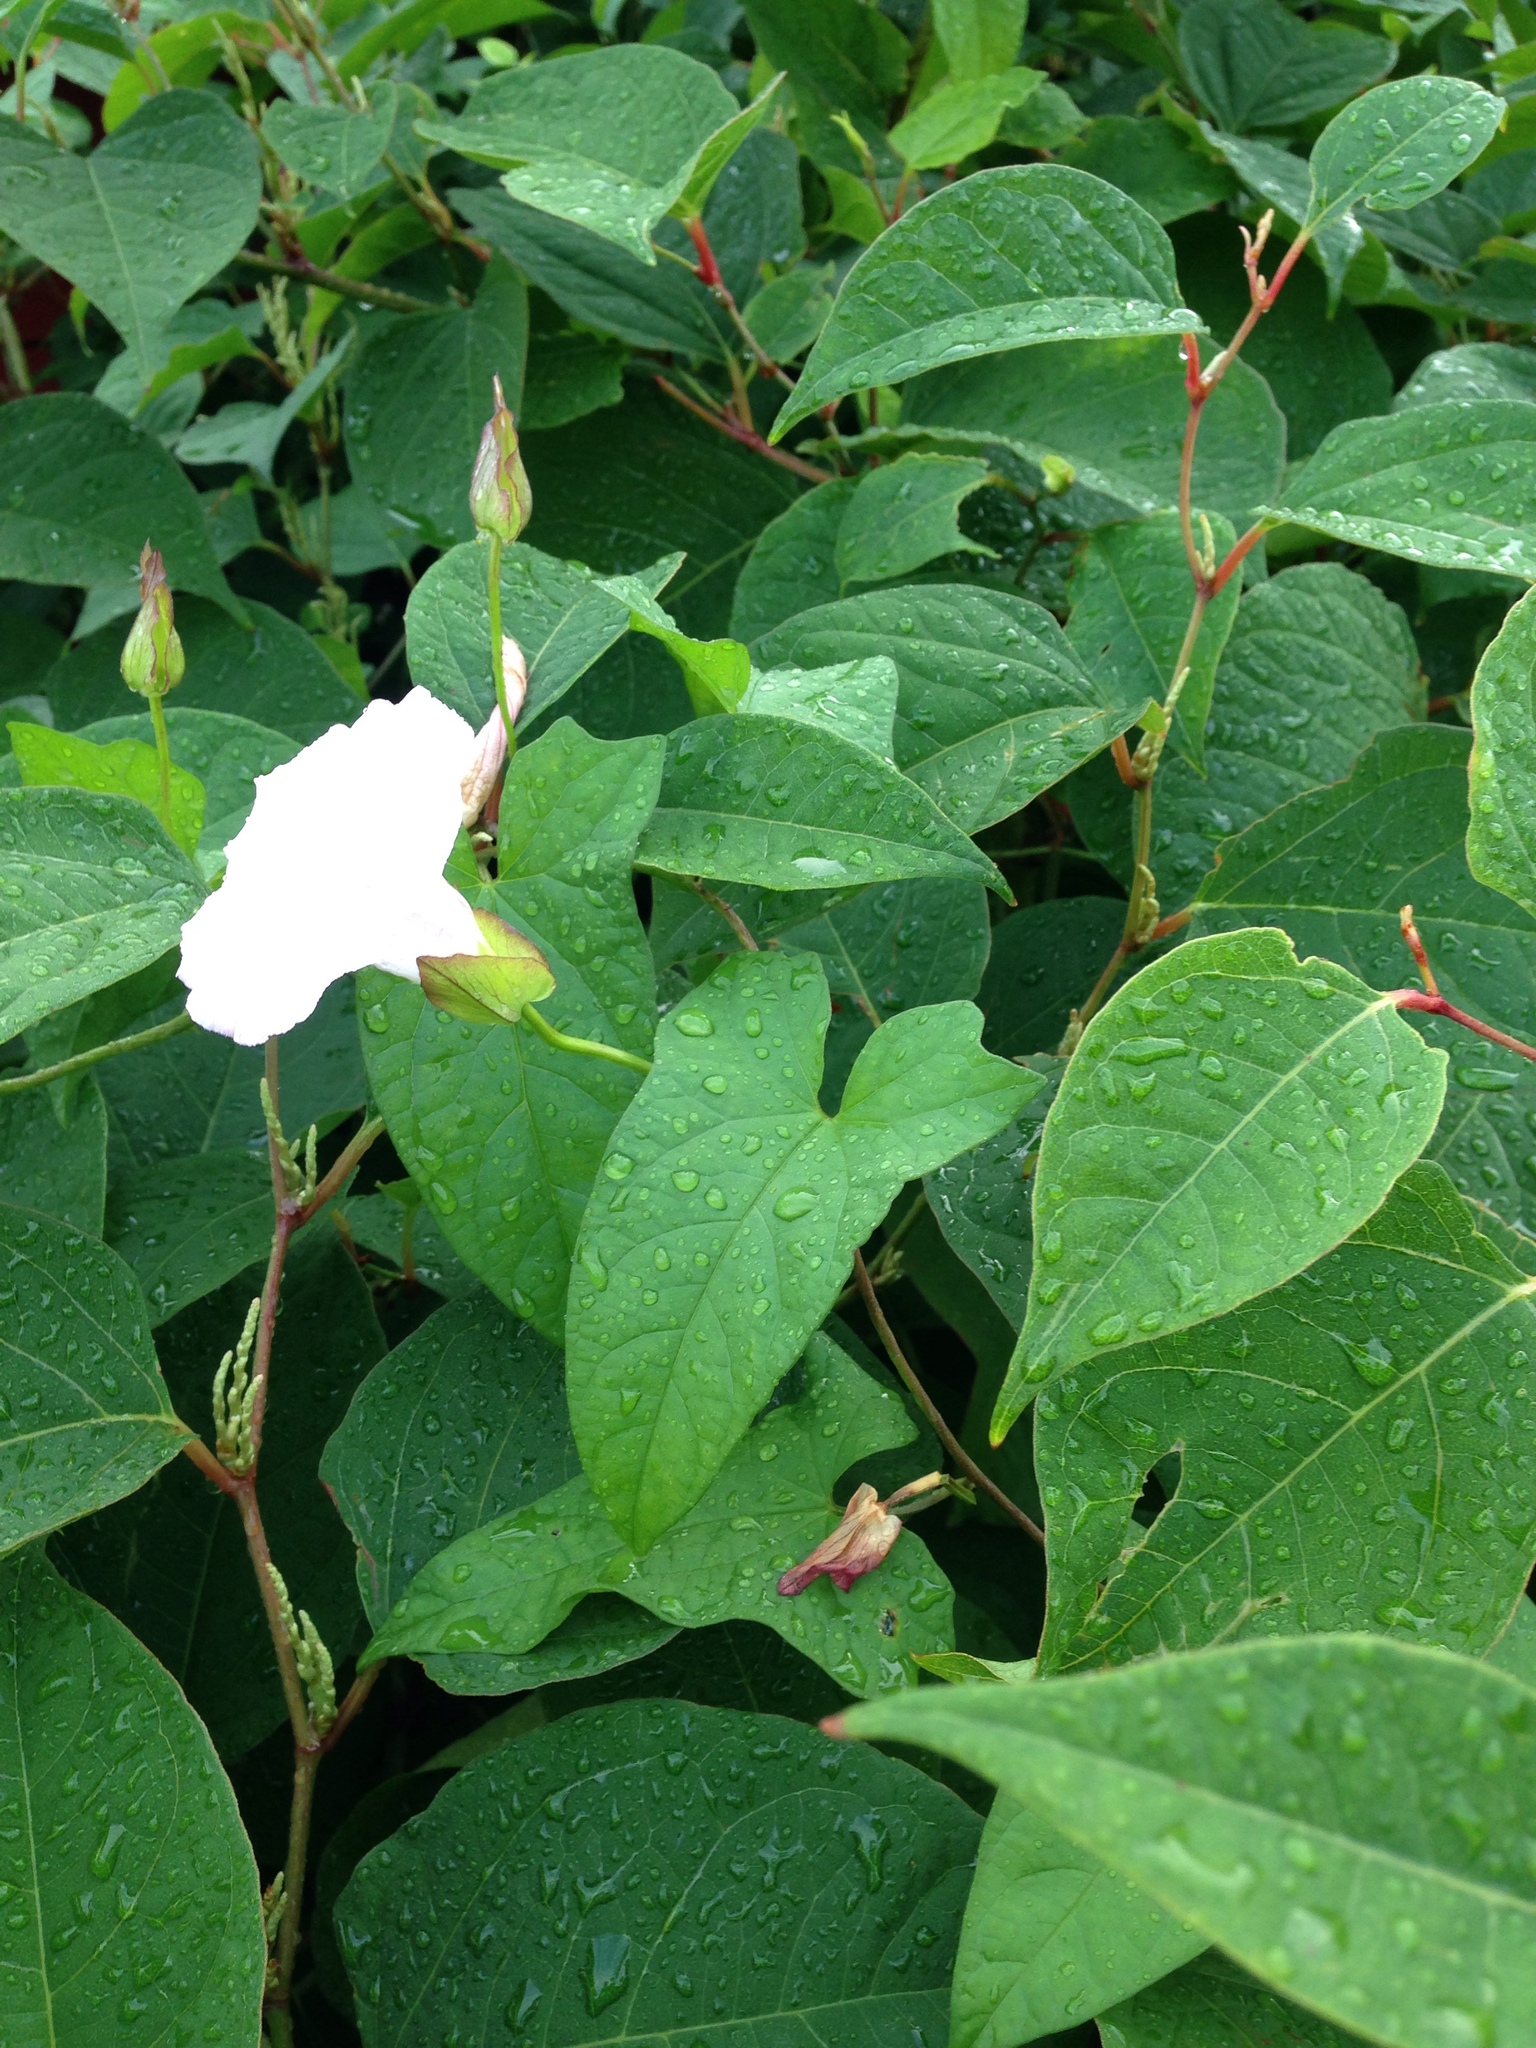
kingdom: Plantae
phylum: Tracheophyta
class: Magnoliopsida
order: Solanales
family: Convolvulaceae
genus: Calystegia
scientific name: Calystegia sepium
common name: Hedge bindweed
